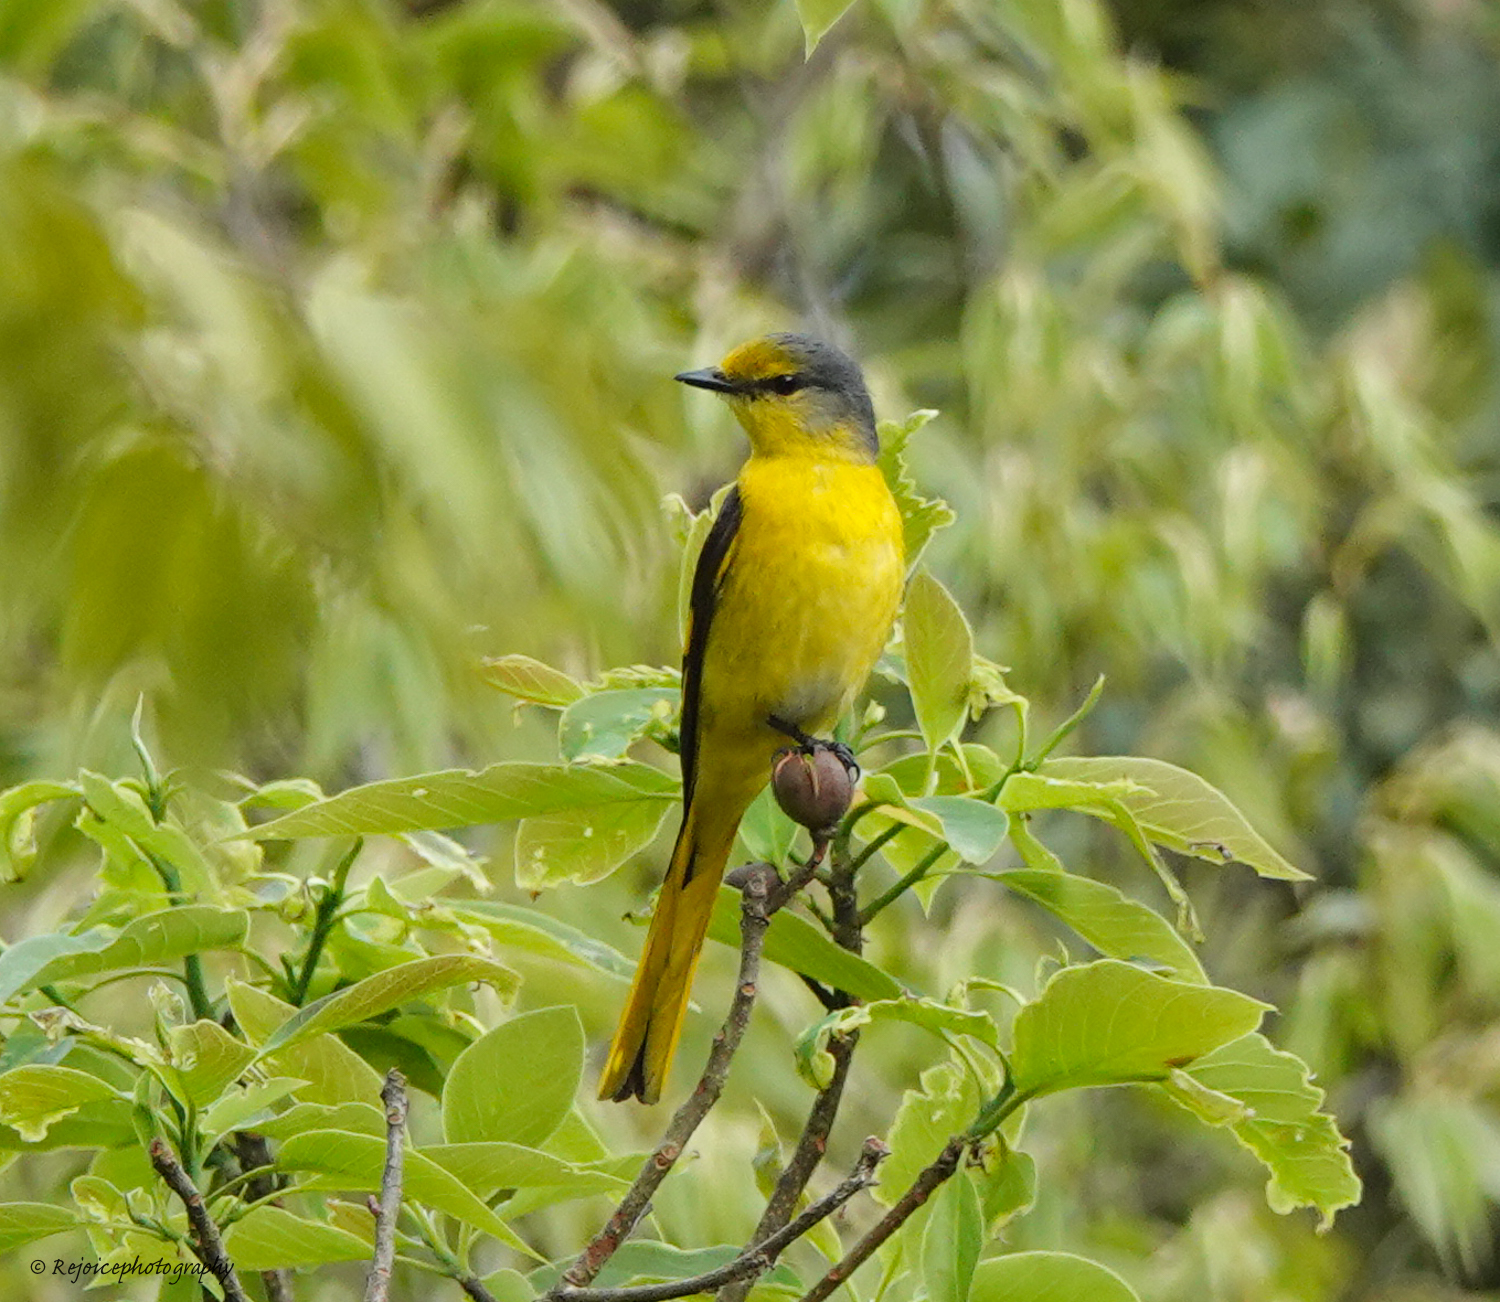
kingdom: Animalia
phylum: Chordata
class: Aves
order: Passeriformes
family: Campephagidae
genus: Pericrocotus
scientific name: Pericrocotus speciosus
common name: Scarlet minivet
